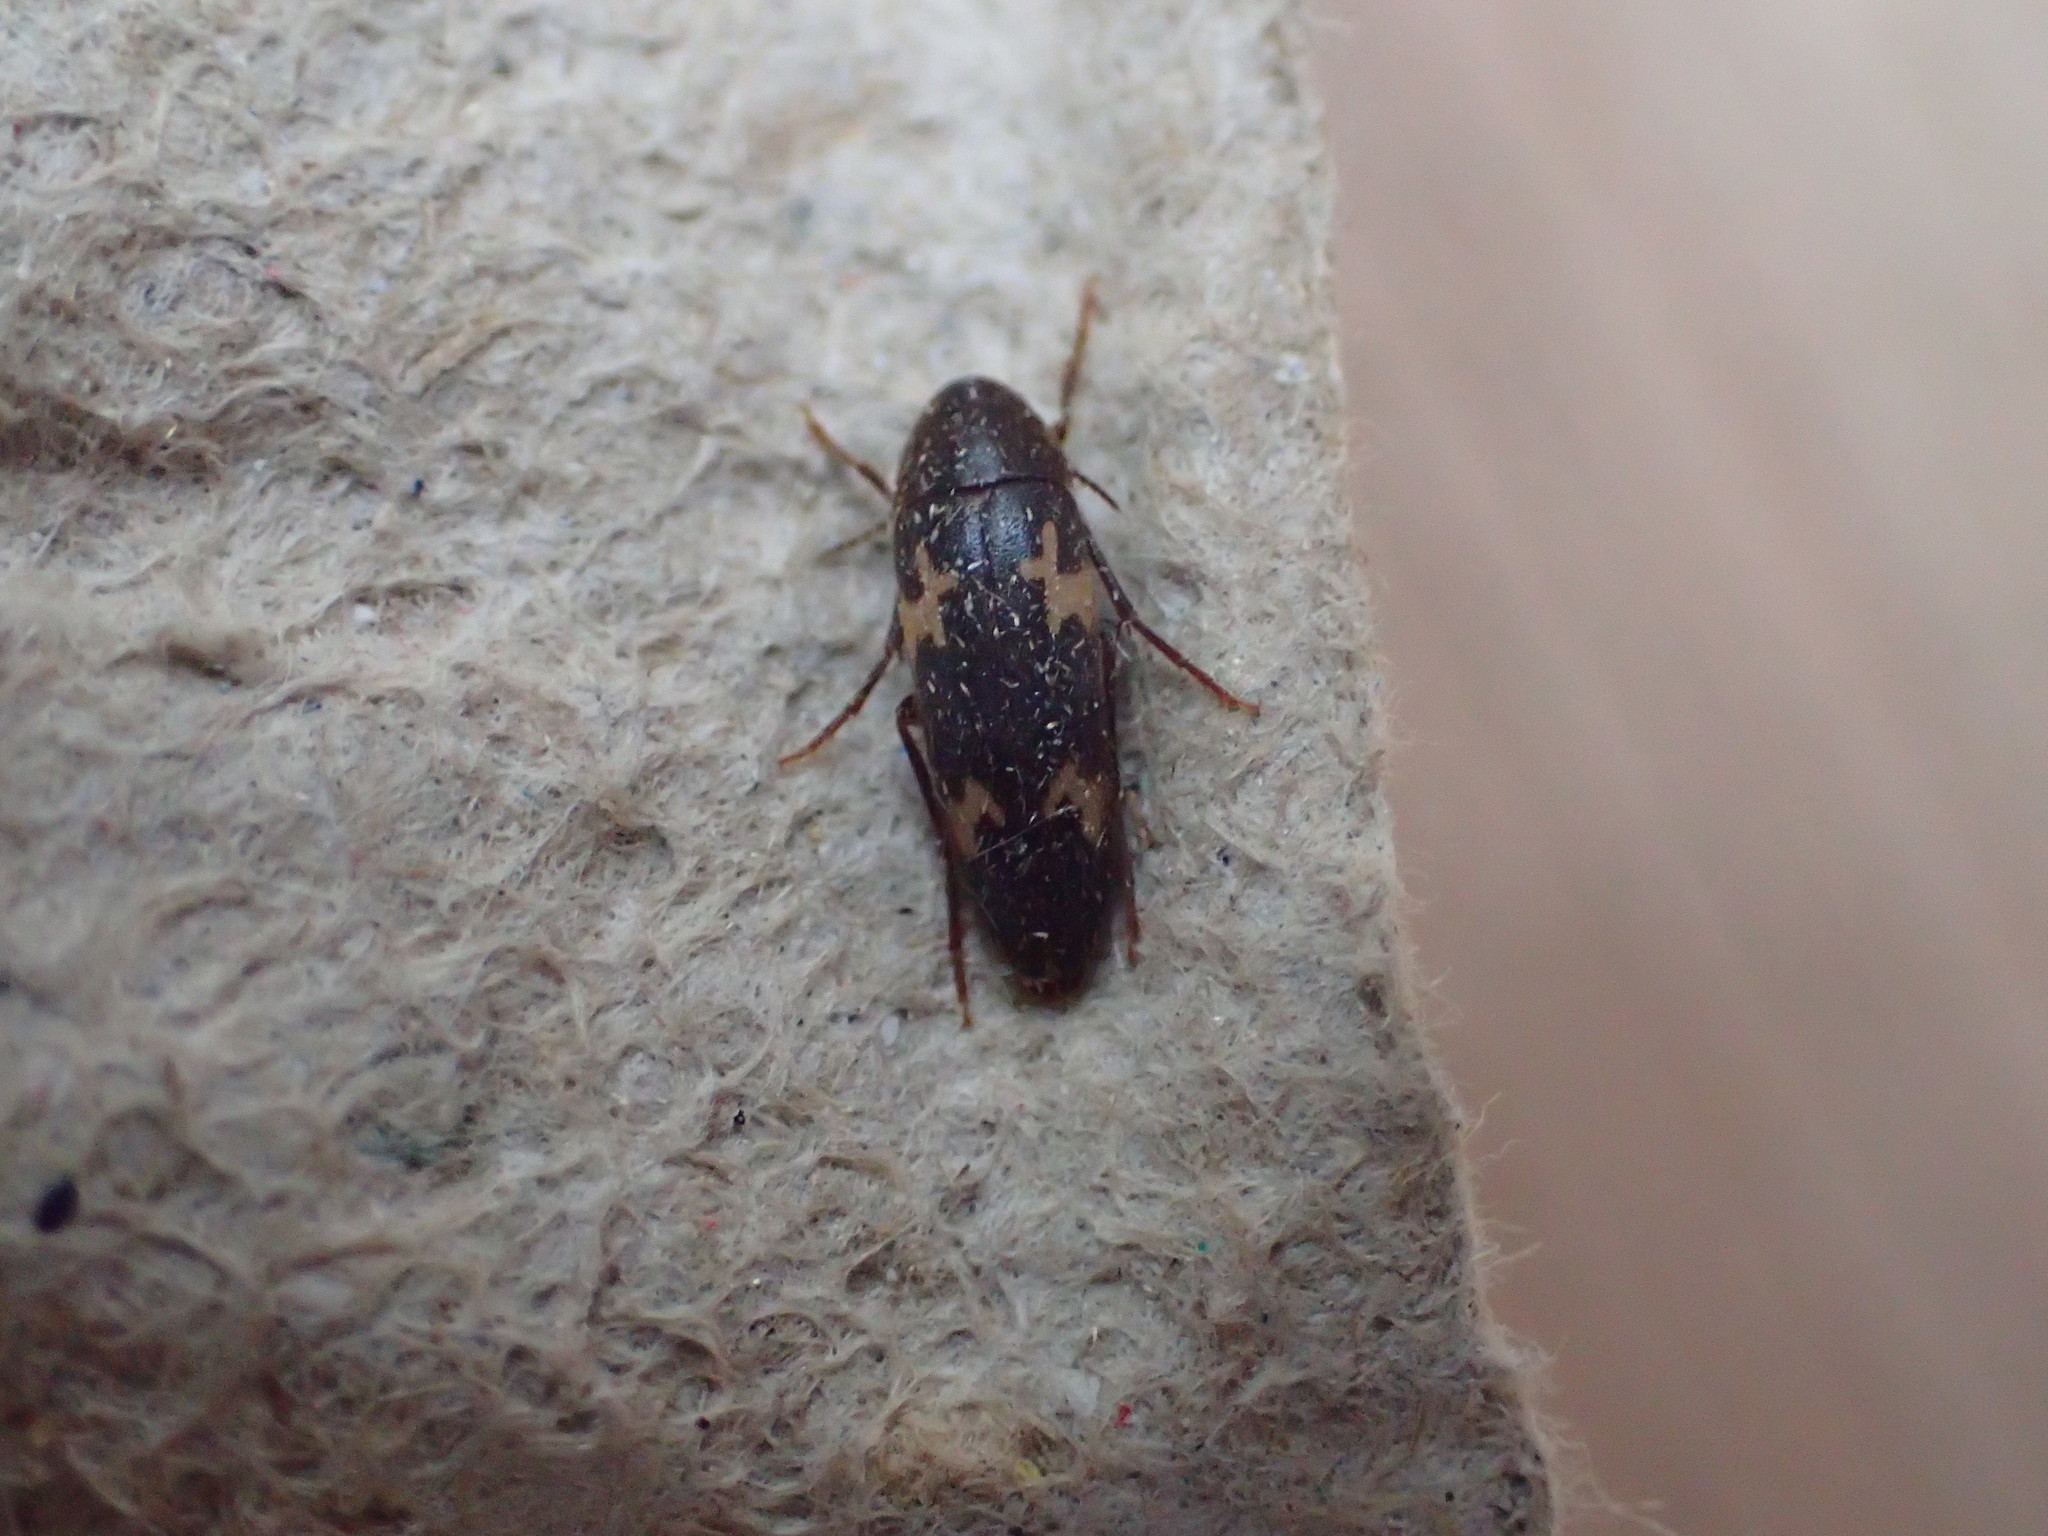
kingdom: Animalia
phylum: Arthropoda
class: Insecta
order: Coleoptera
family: Melandryidae
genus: Dircaea
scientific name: Dircaea liturata
